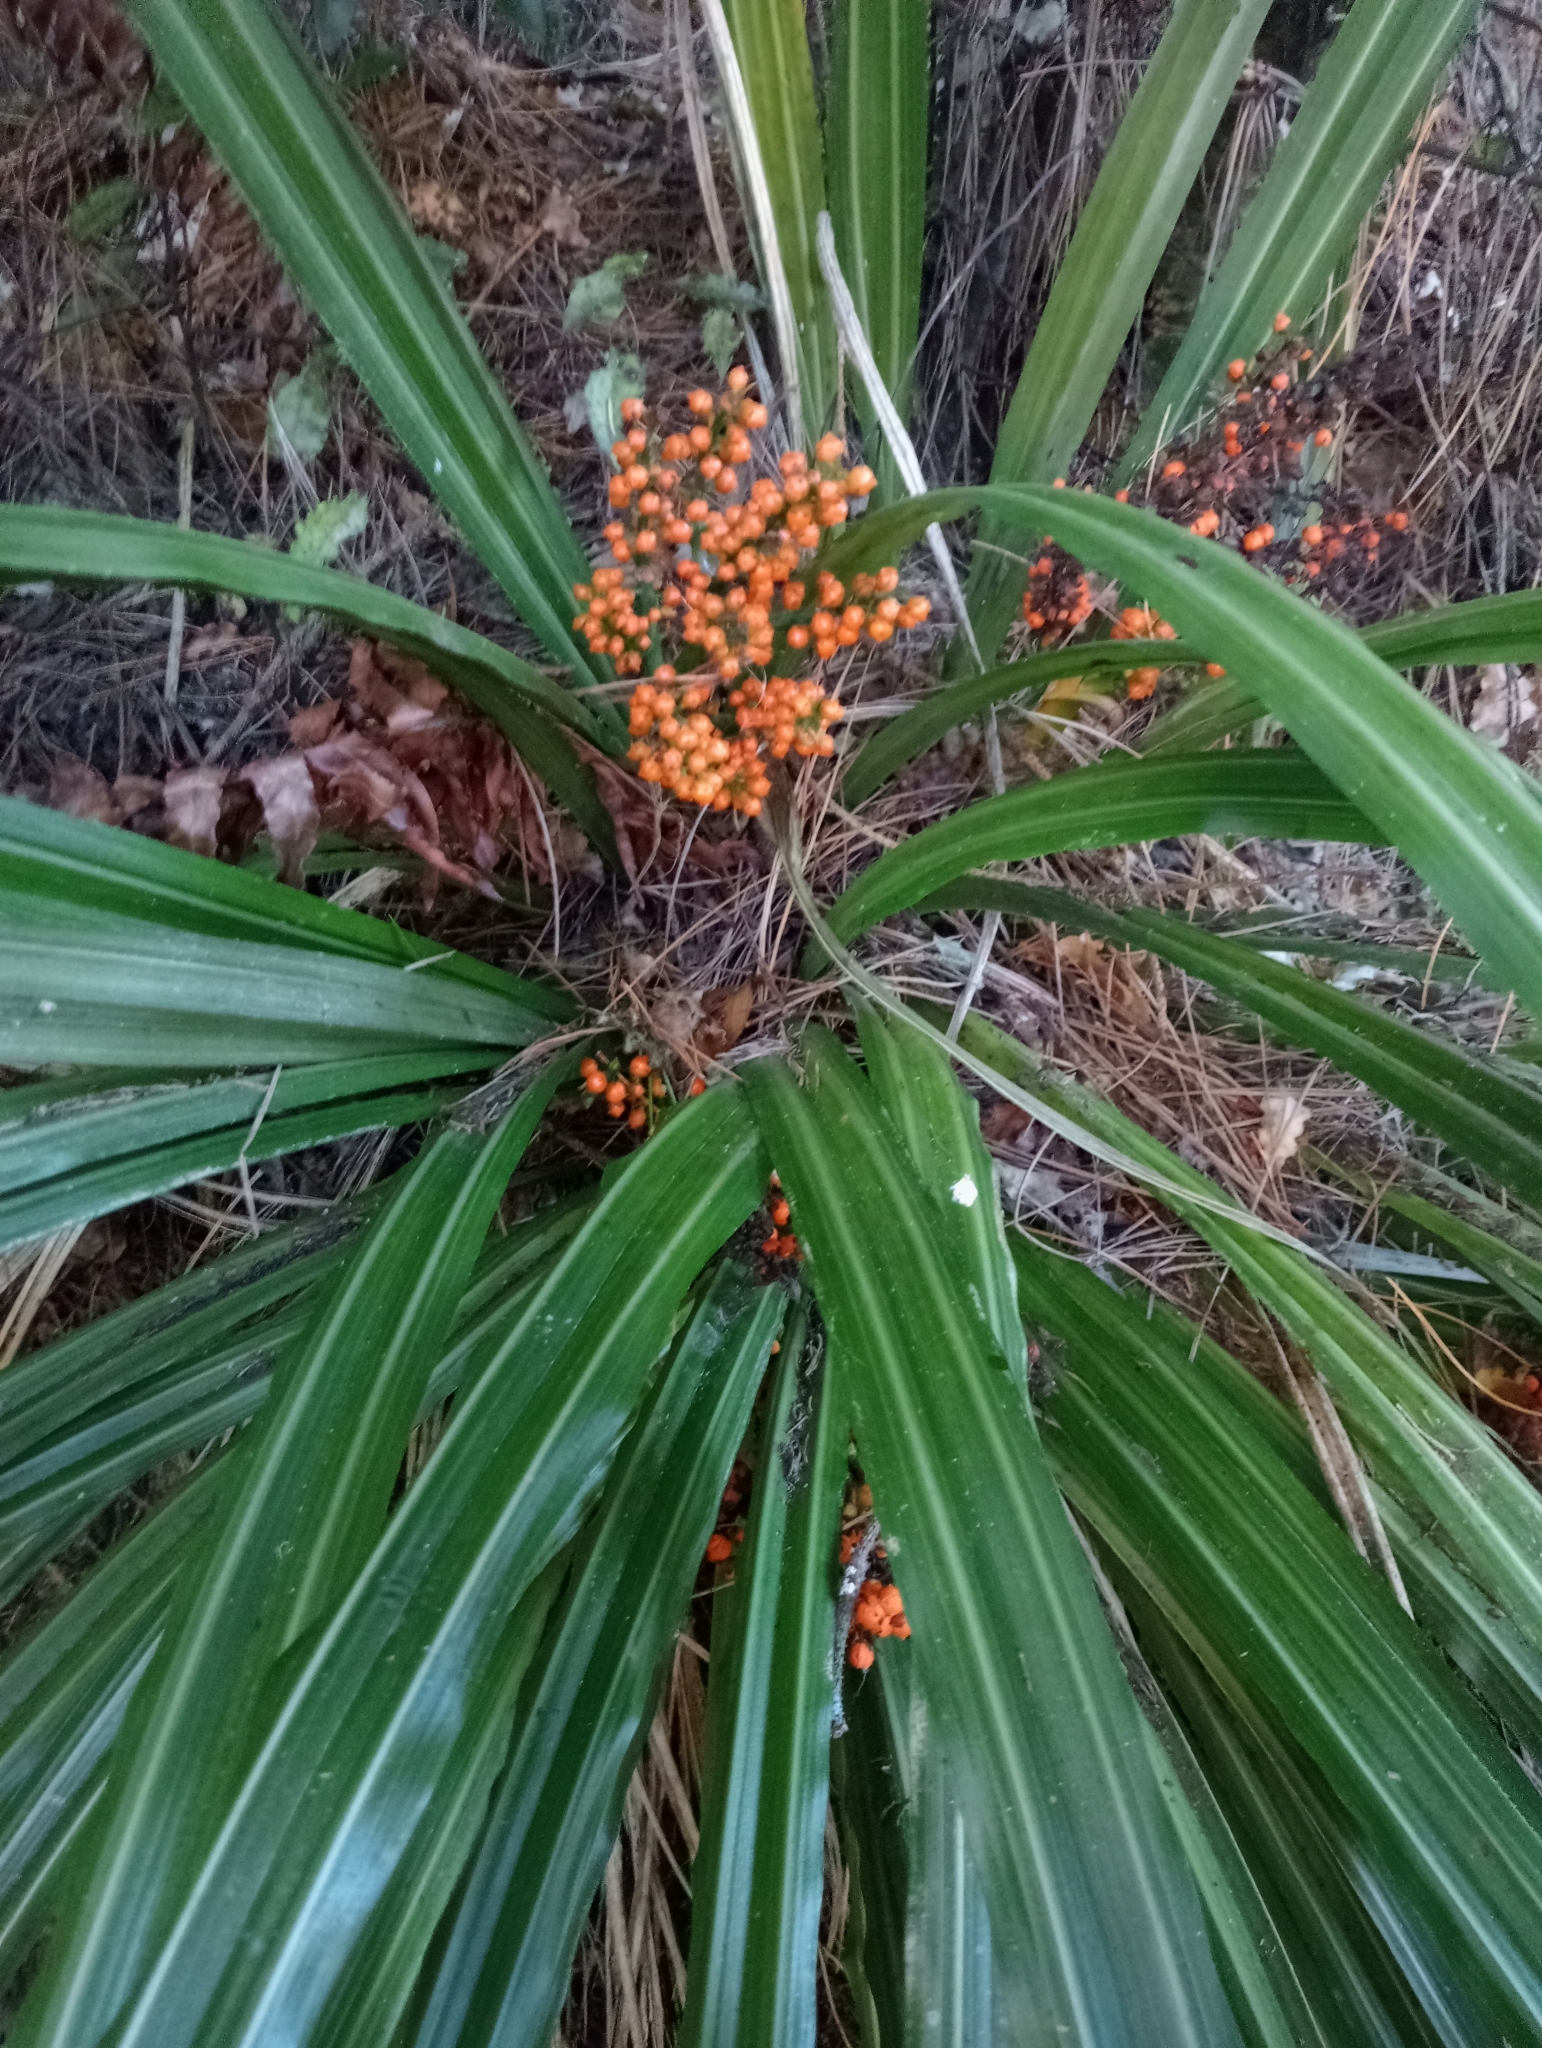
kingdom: Plantae
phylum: Tracheophyta
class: Liliopsida
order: Asparagales
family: Asteliaceae
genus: Astelia
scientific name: Astelia fragrans
